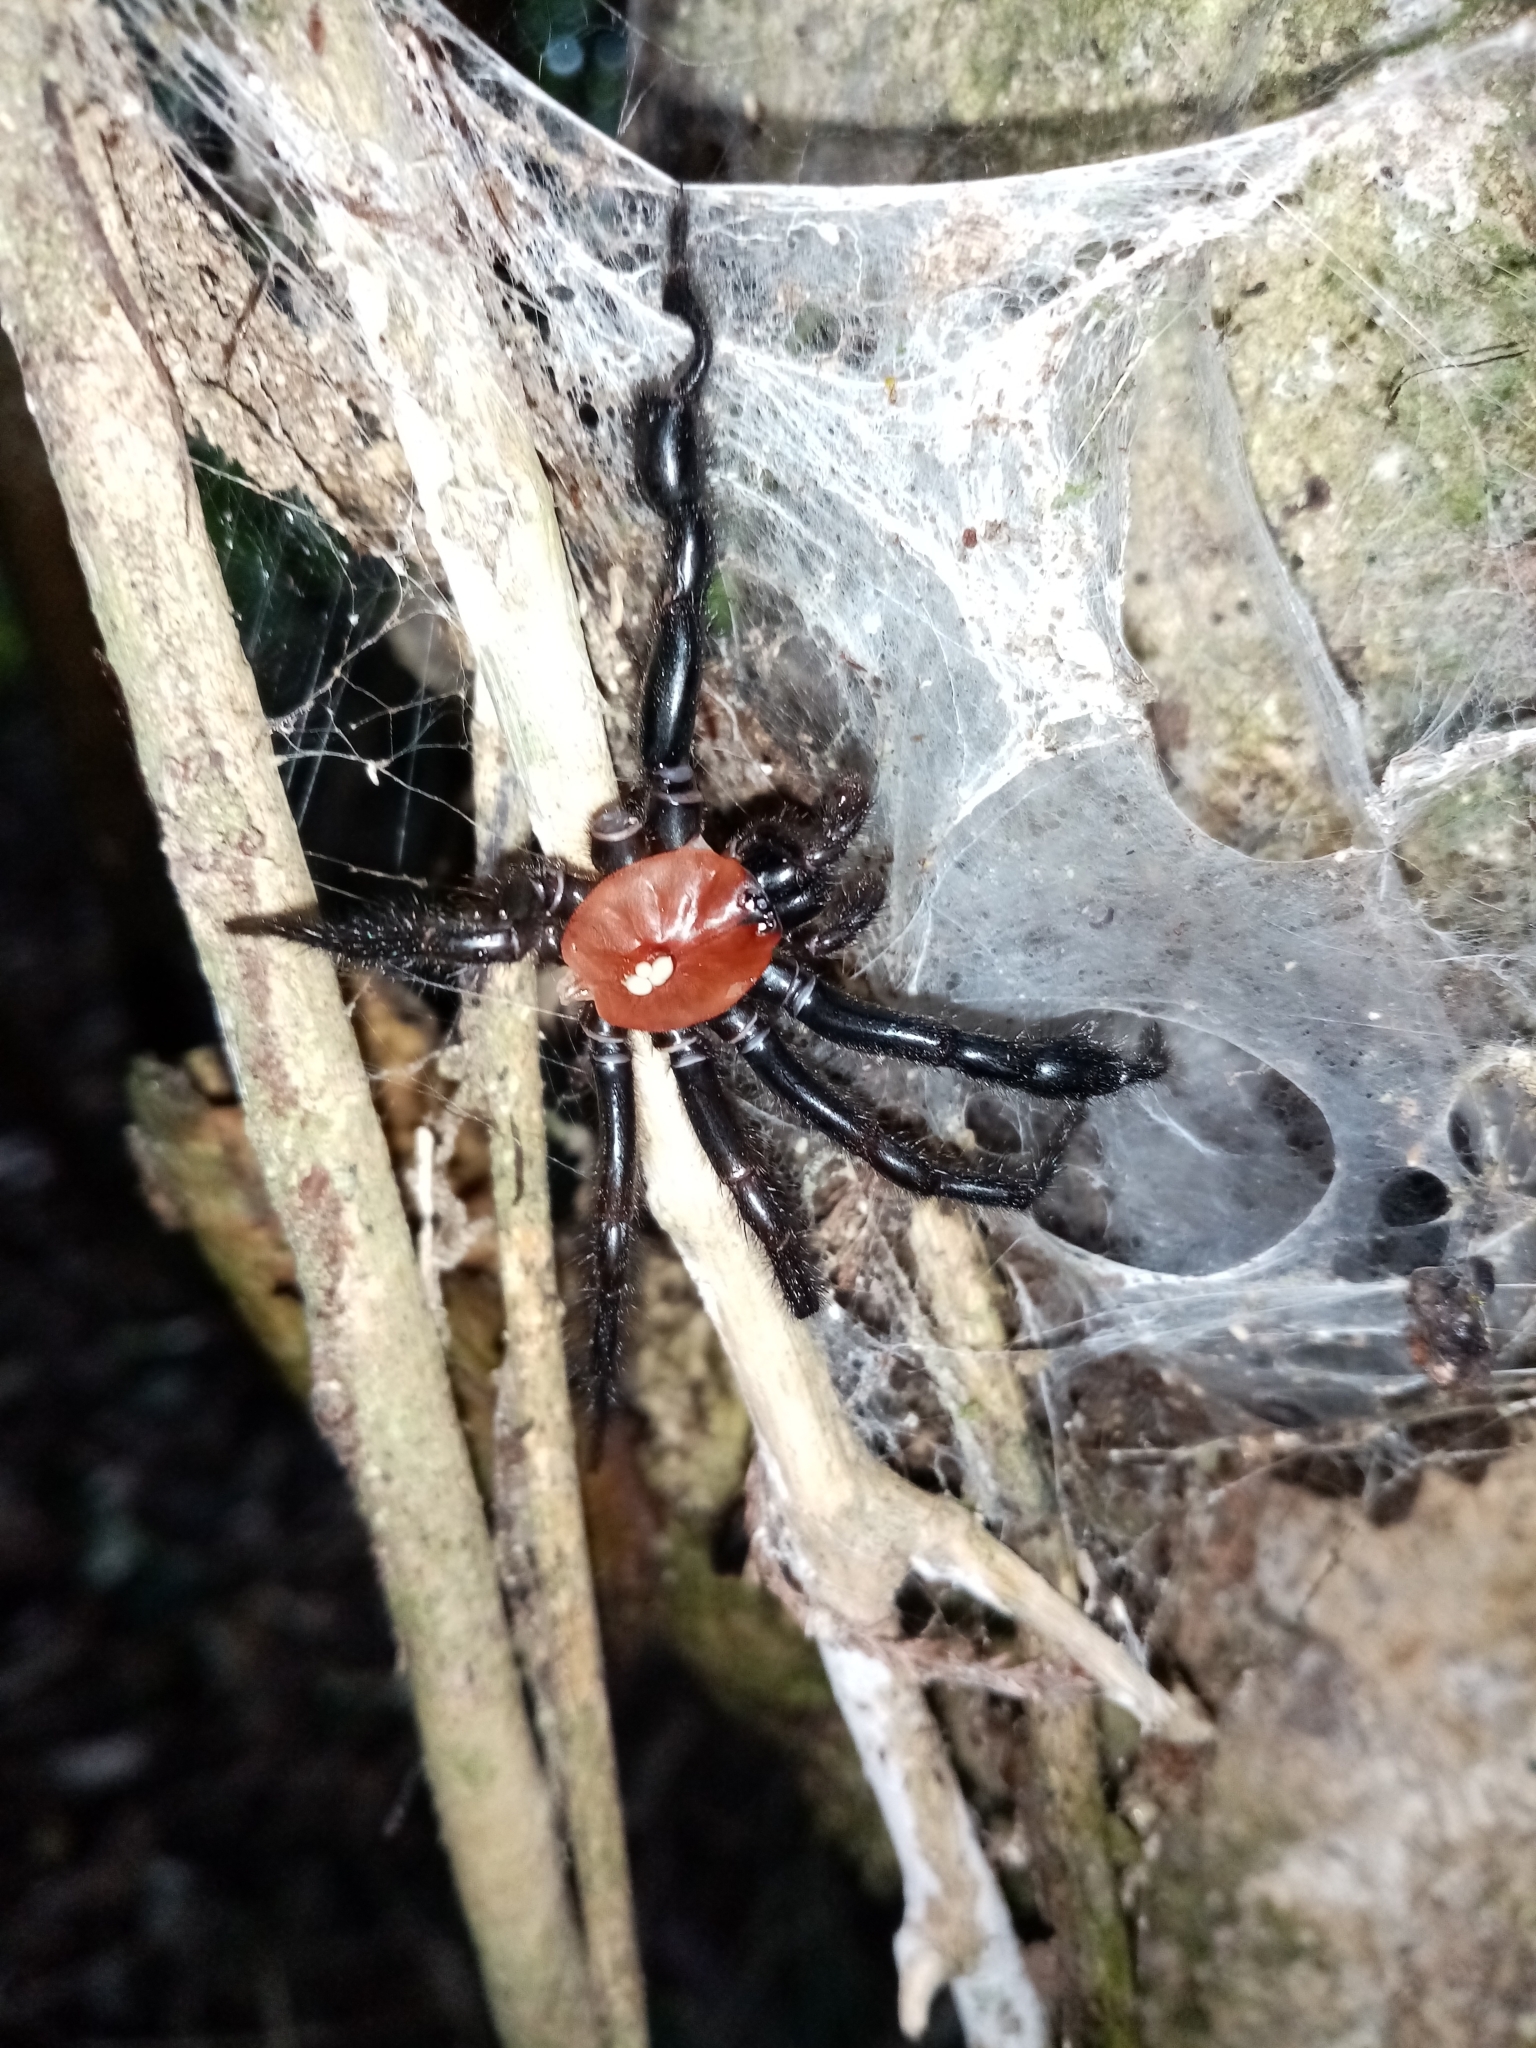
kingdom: Animalia
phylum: Arthropoda
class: Arachnida
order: Araneae
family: Porrhothelidae
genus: Porrhothele
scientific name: Porrhothele antipodiana
